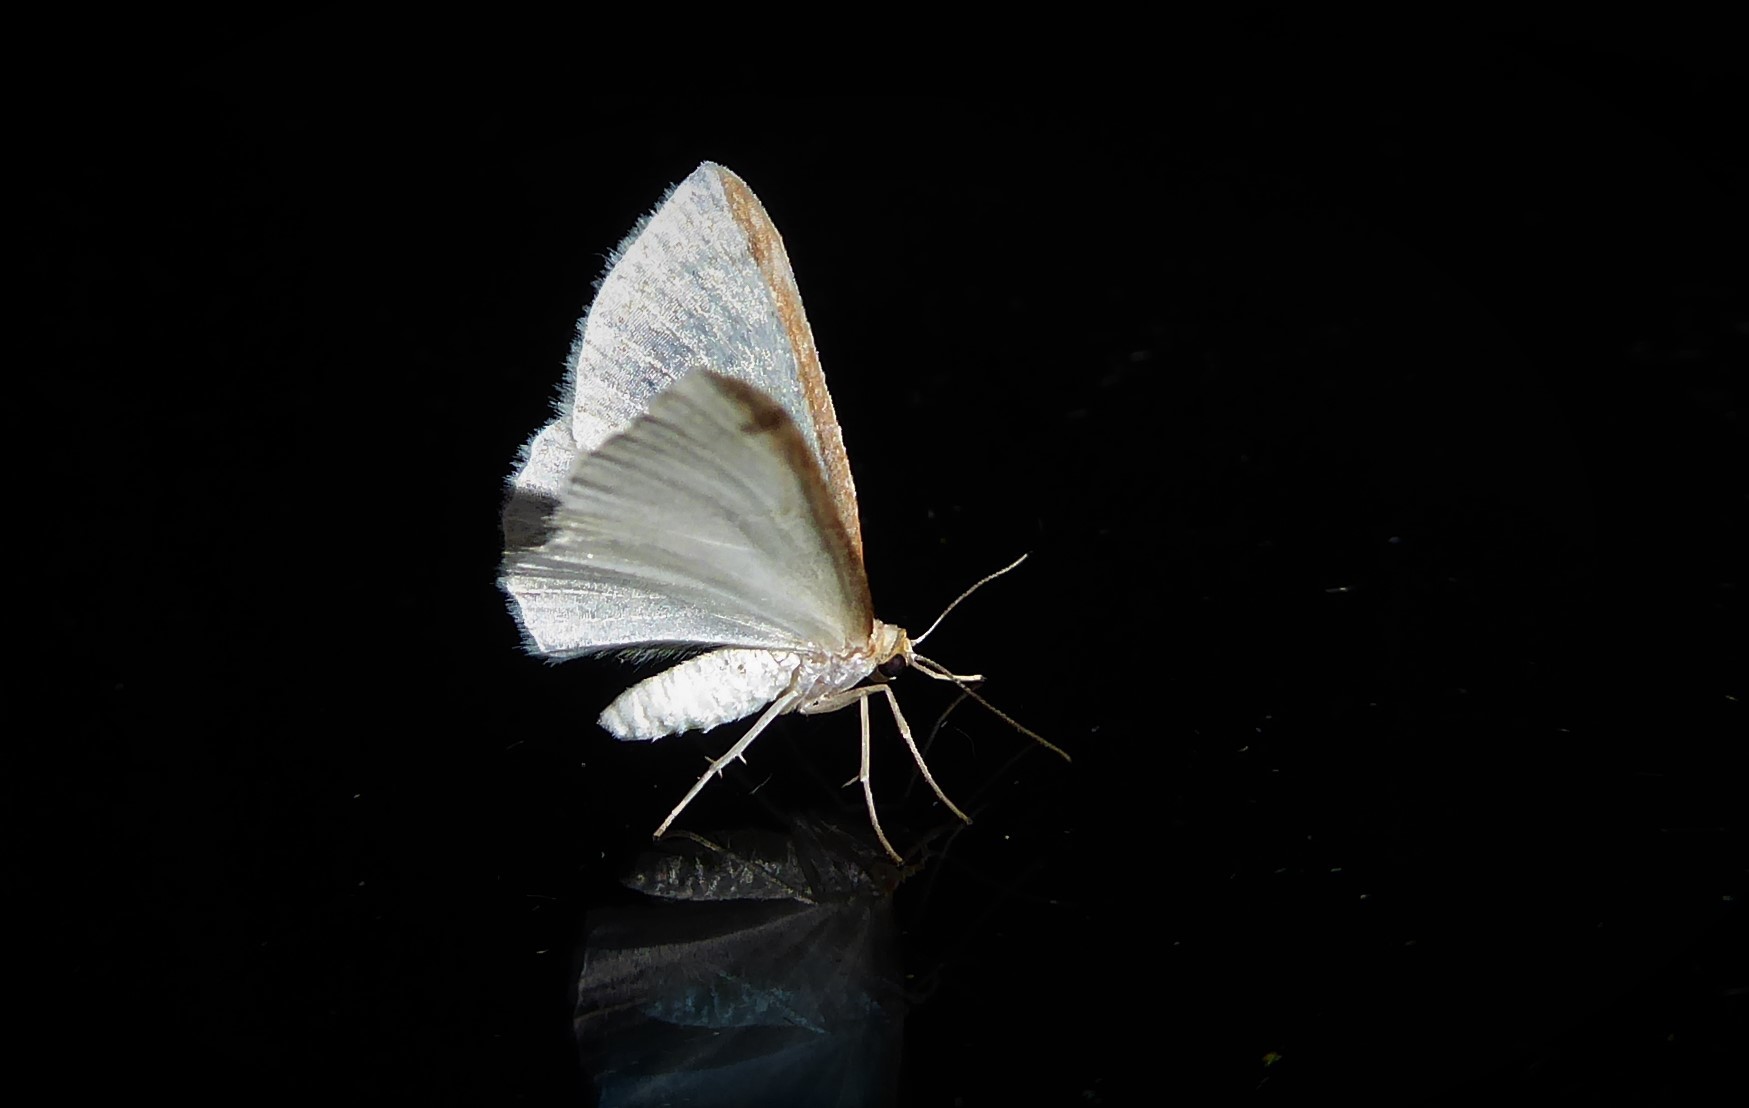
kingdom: Animalia
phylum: Arthropoda
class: Insecta
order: Lepidoptera
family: Geometridae
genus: Epiphryne
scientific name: Epiphryne undosata
